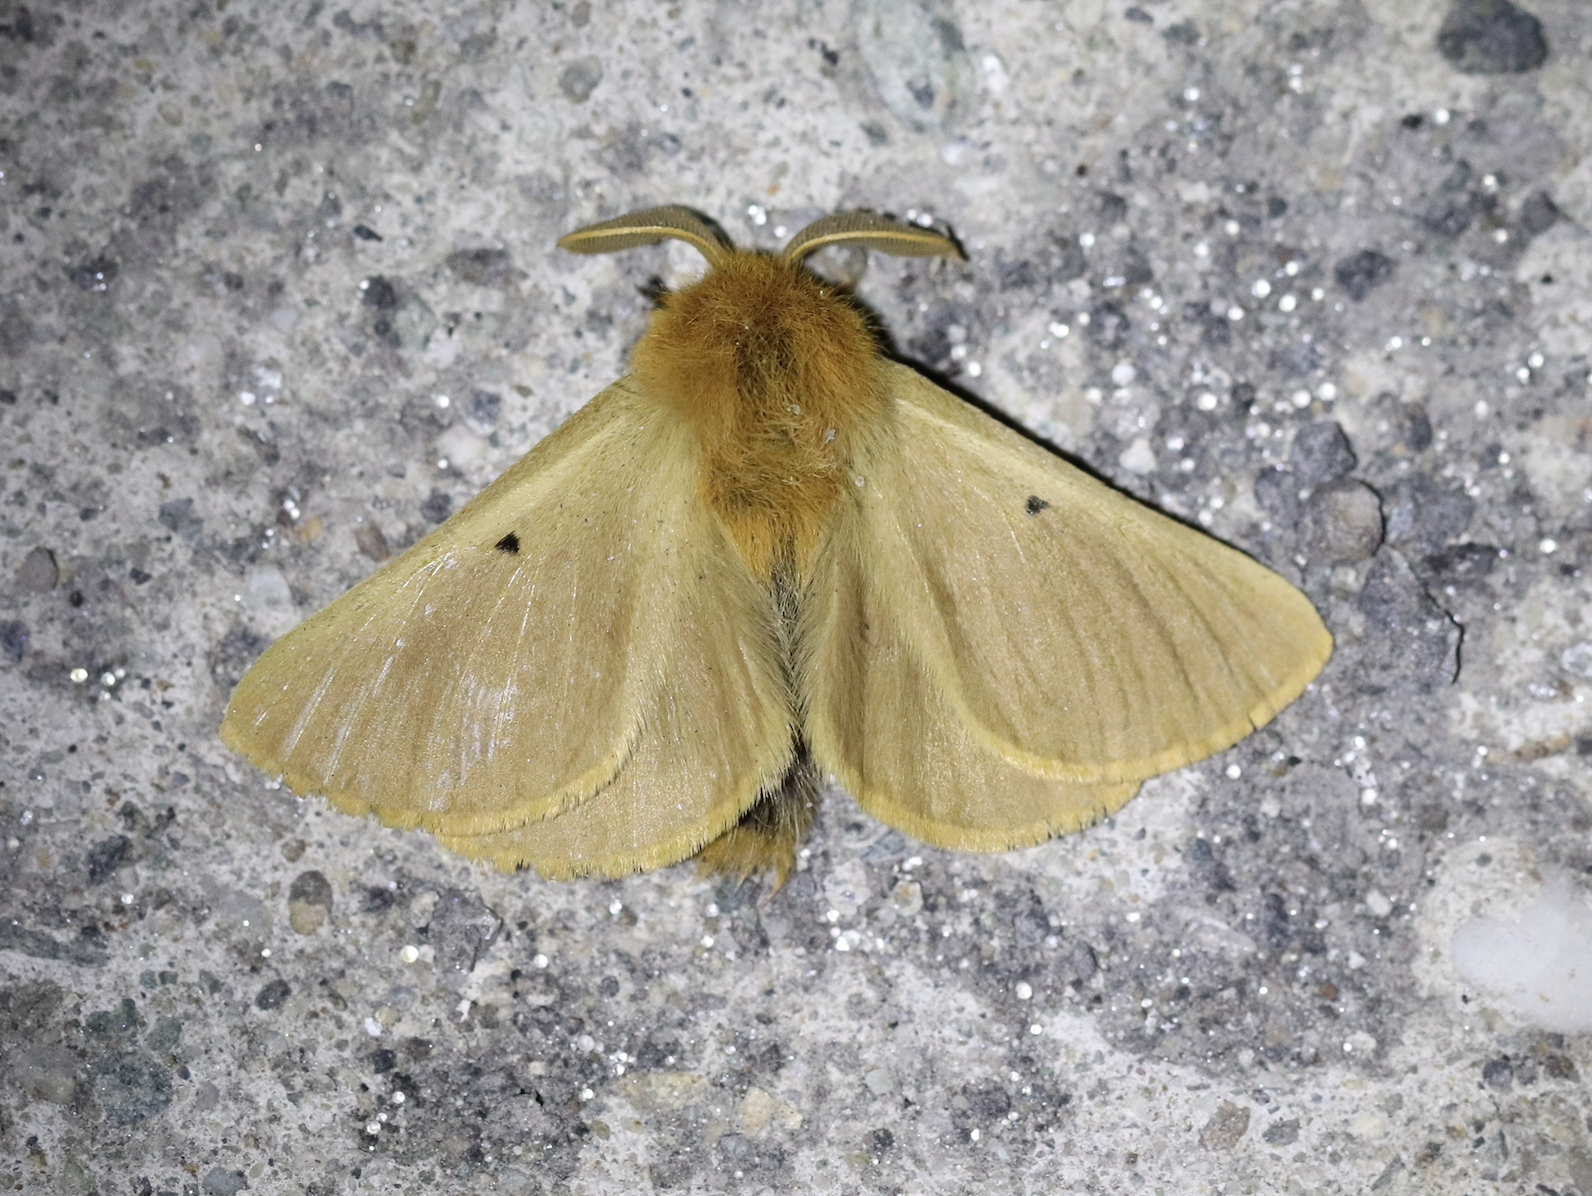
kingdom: Animalia
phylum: Arthropoda
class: Insecta
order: Lepidoptera
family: Brahmaeidae
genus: Lemonia
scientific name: Lemonia taraxaci
